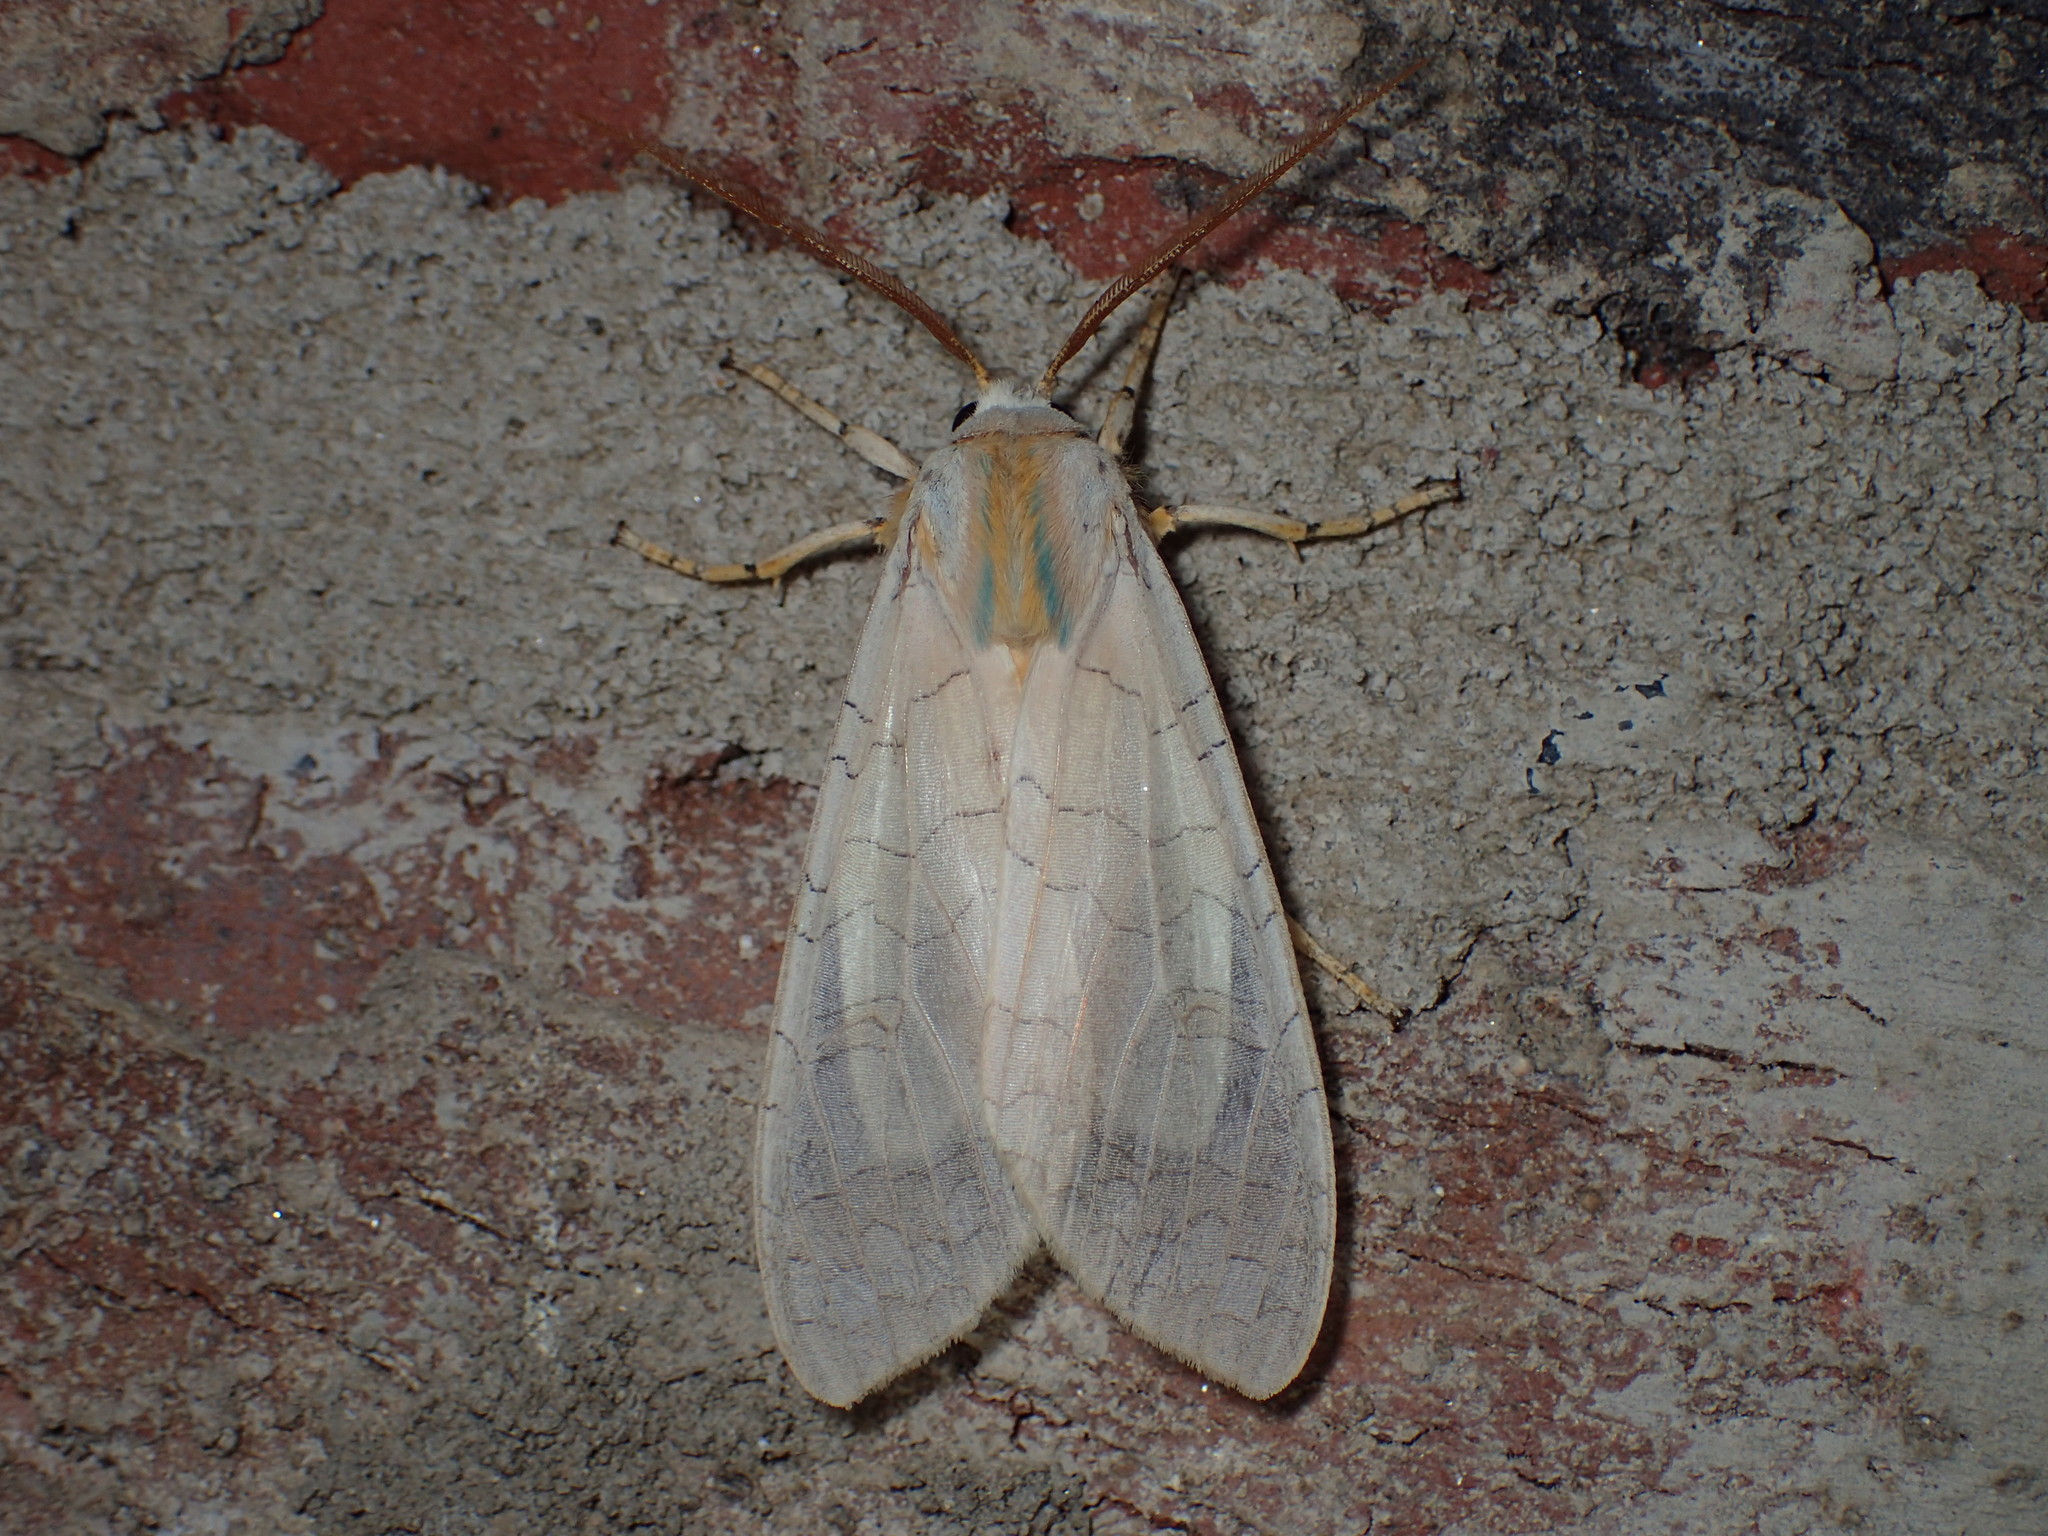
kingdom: Animalia
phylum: Arthropoda
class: Insecta
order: Lepidoptera
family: Erebidae
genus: Halysidota
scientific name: Halysidota
